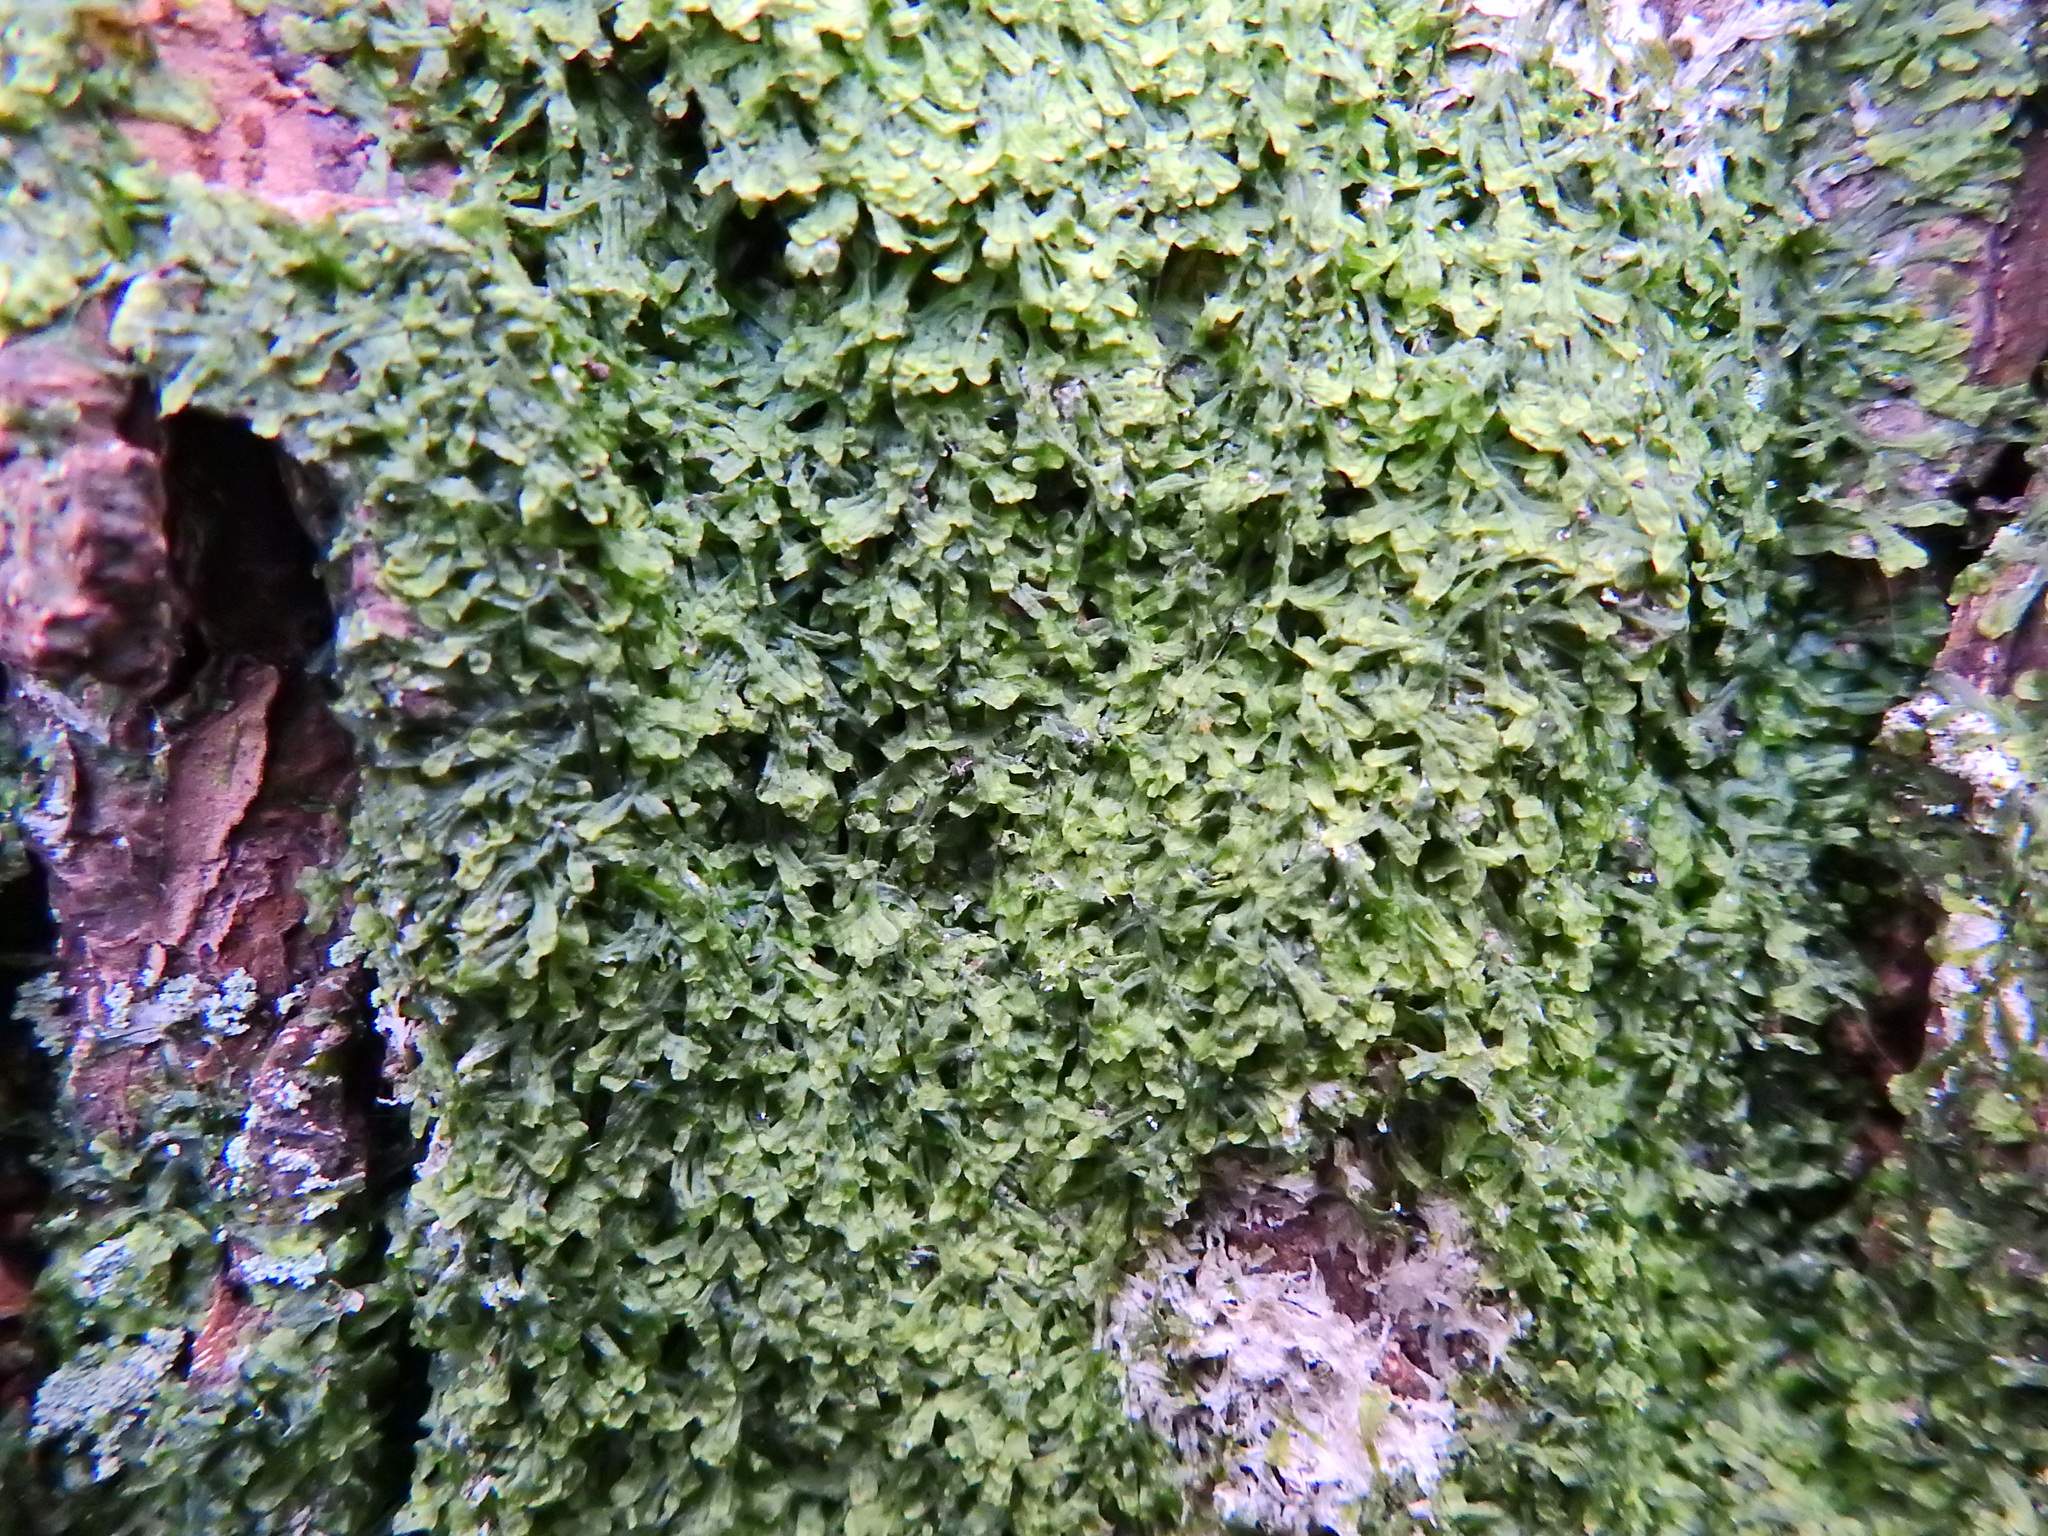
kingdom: Plantae
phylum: Marchantiophyta
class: Jungermanniopsida
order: Metzgeriales
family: Metzgeriaceae
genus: Metzgeria
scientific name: Metzgeria furcata
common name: Forked veilwort
